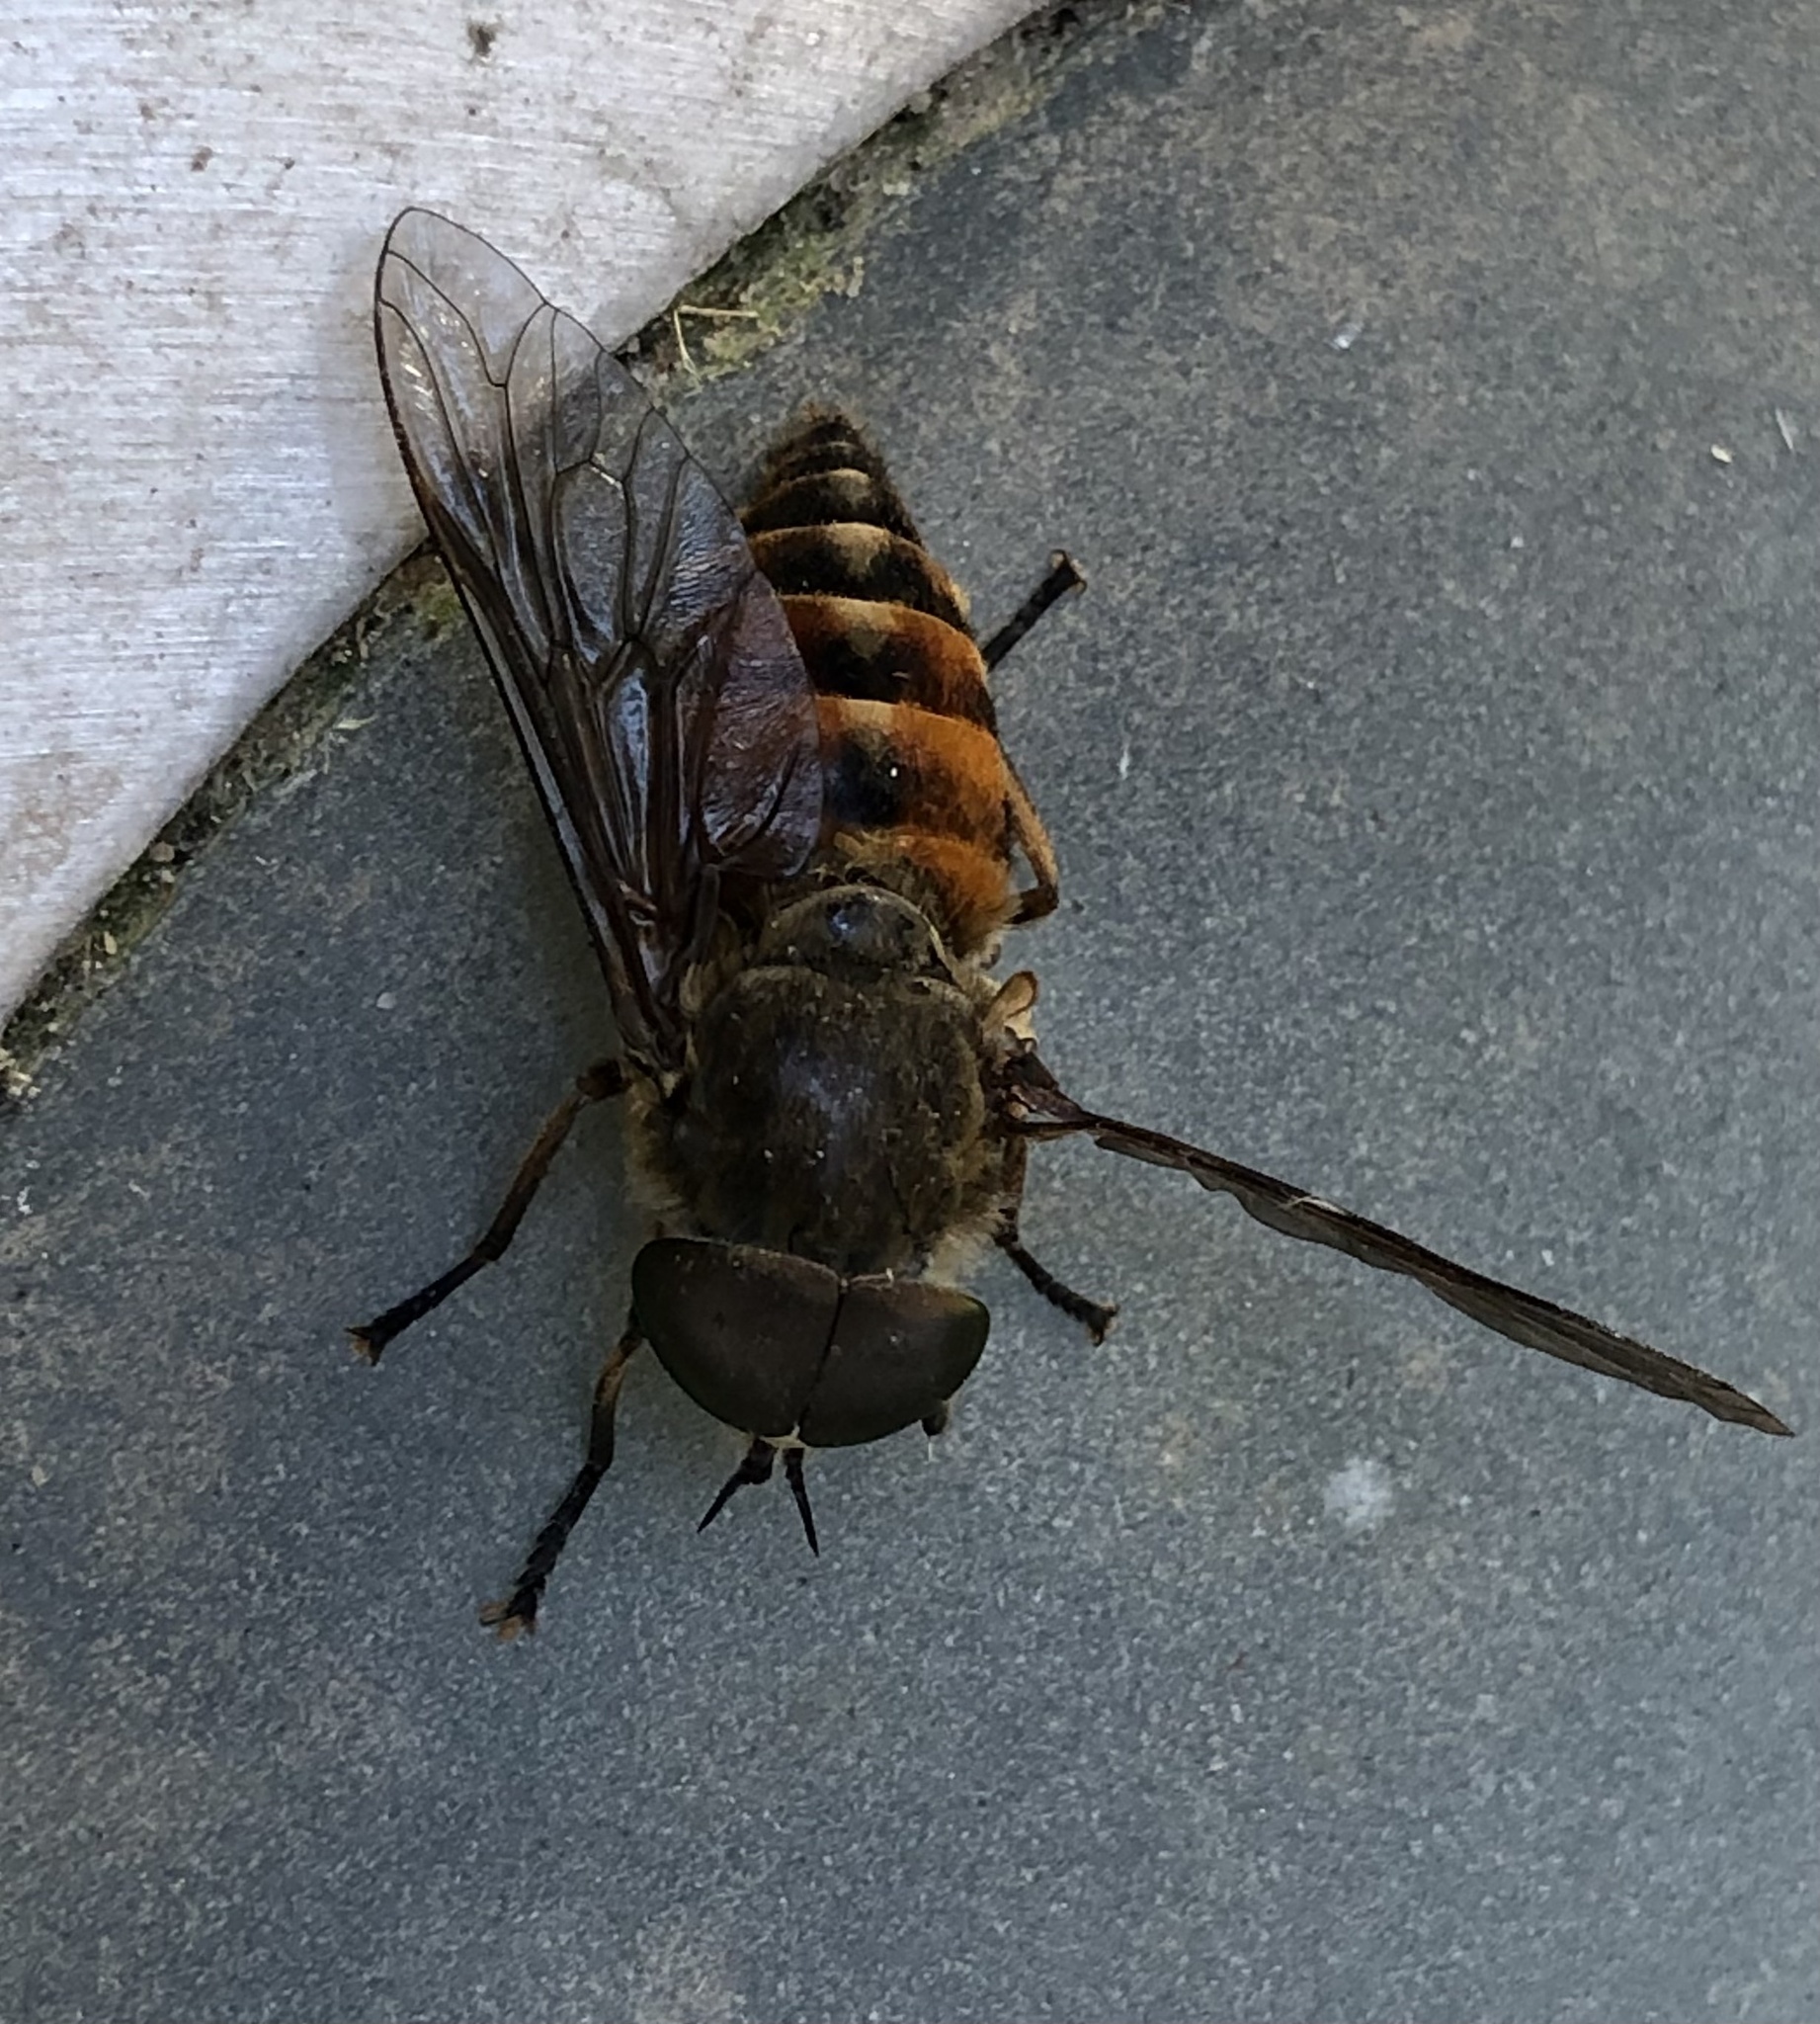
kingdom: Animalia
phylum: Arthropoda
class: Insecta
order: Diptera
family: Tabanidae
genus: Tabanus
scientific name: Tabanus sudeticus
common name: Dark giant horsefly
